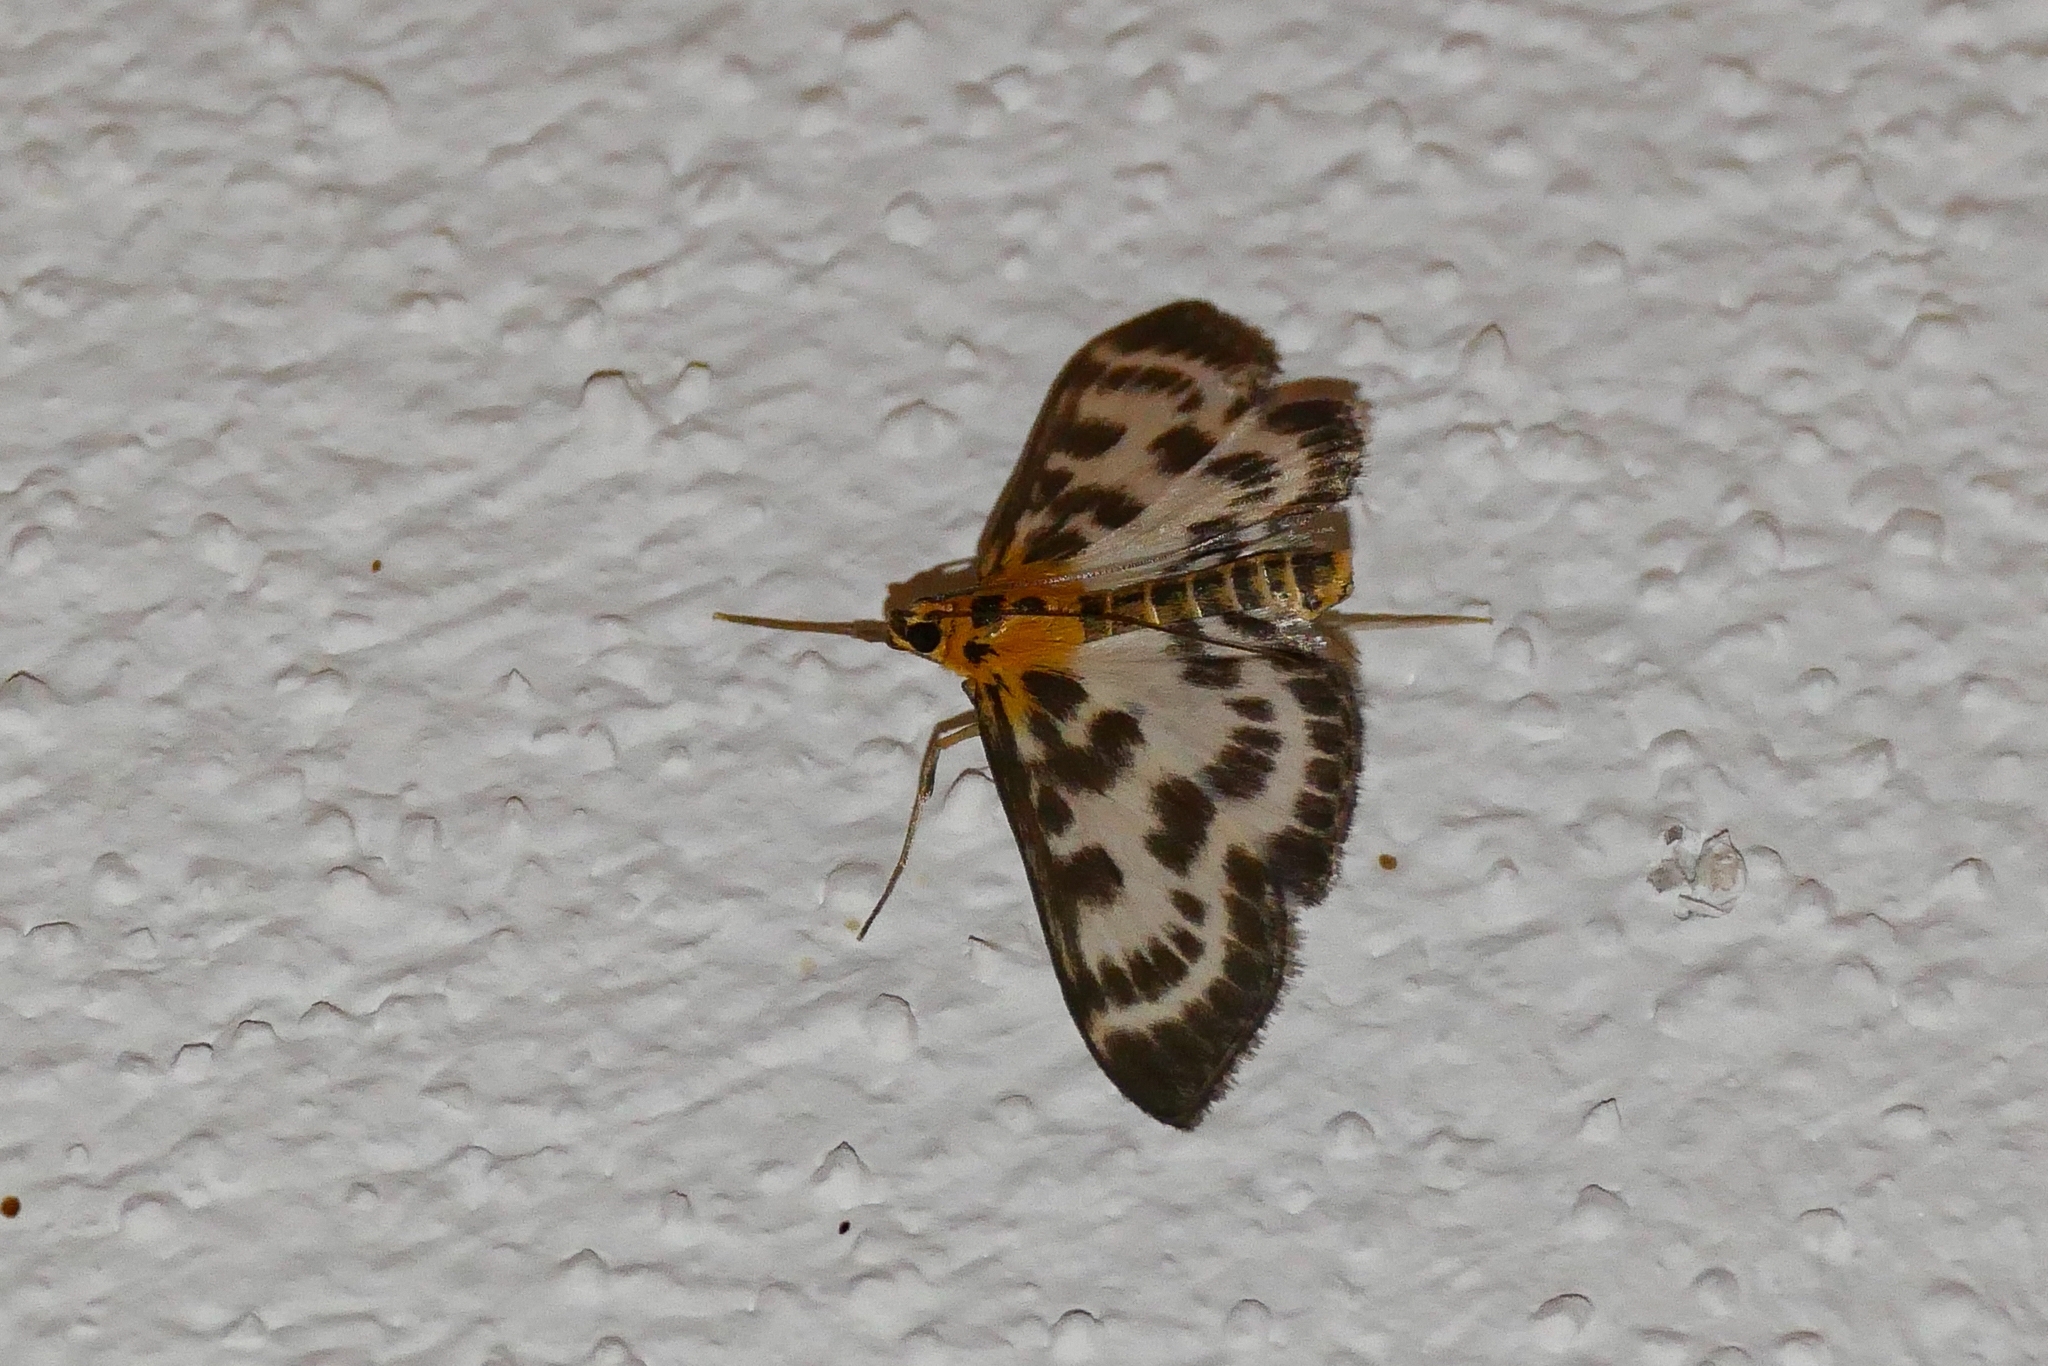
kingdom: Animalia
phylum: Arthropoda
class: Insecta
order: Lepidoptera
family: Crambidae
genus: Anania
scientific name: Anania hortulata
